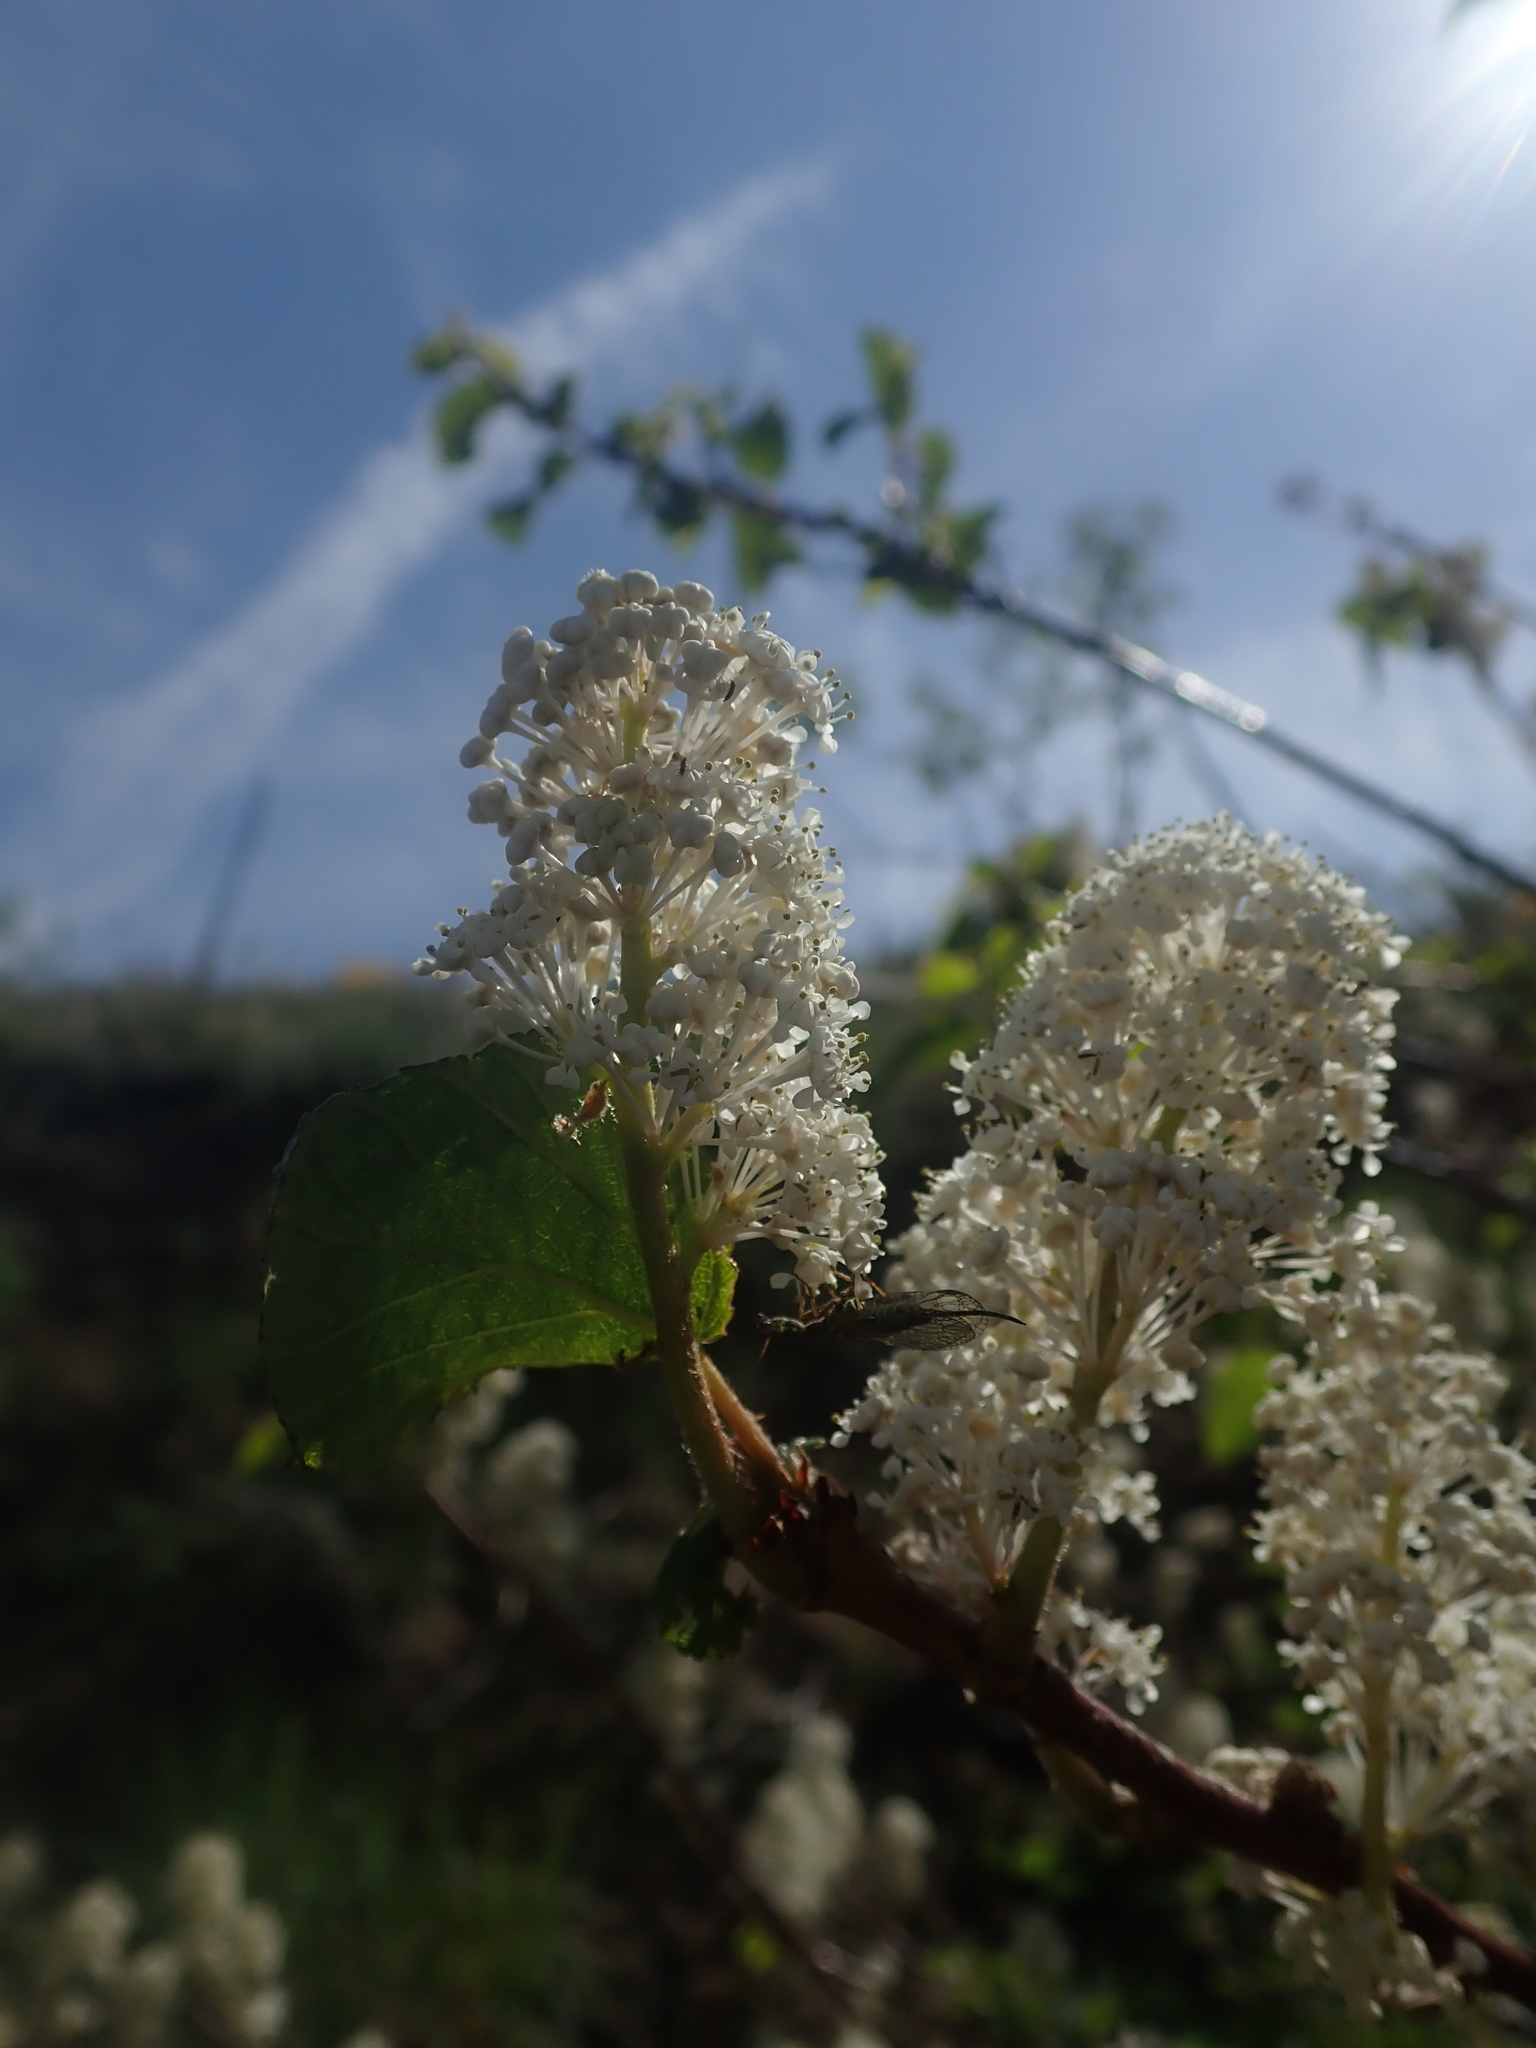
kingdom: Plantae
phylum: Tracheophyta
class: Magnoliopsida
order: Rosales
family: Rhamnaceae
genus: Ceanothus
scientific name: Ceanothus sanguineus
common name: Teatree
